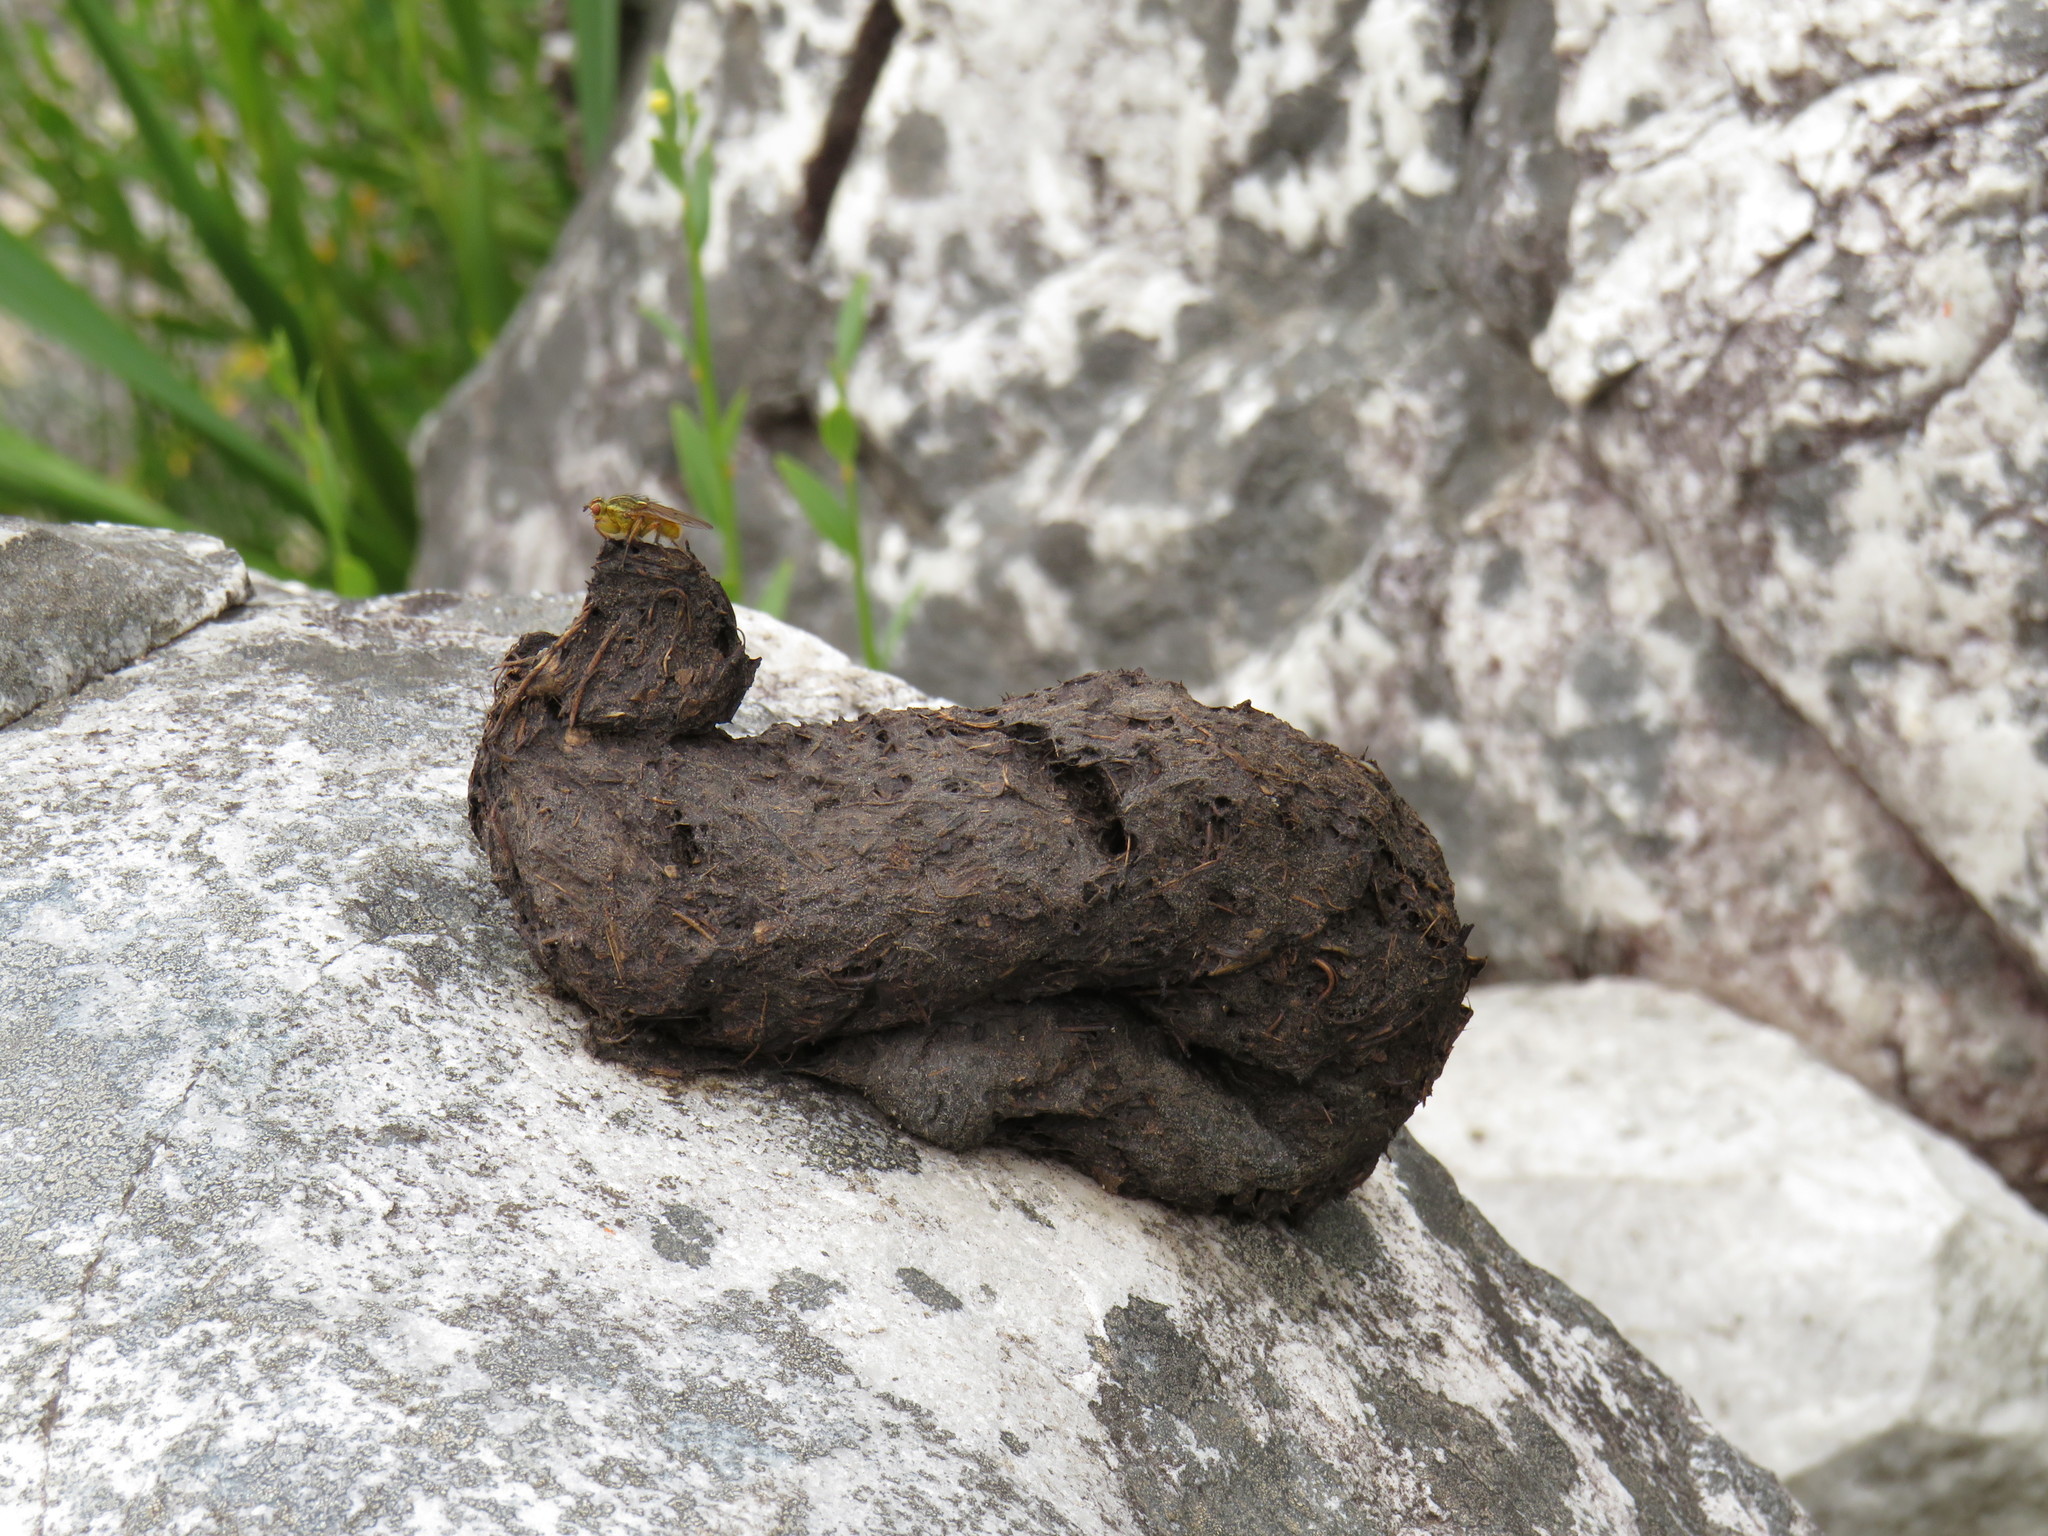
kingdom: Animalia
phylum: Chordata
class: Mammalia
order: Primates
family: Cercopithecidae
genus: Papio
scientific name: Papio ursinus
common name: Chacma baboon
